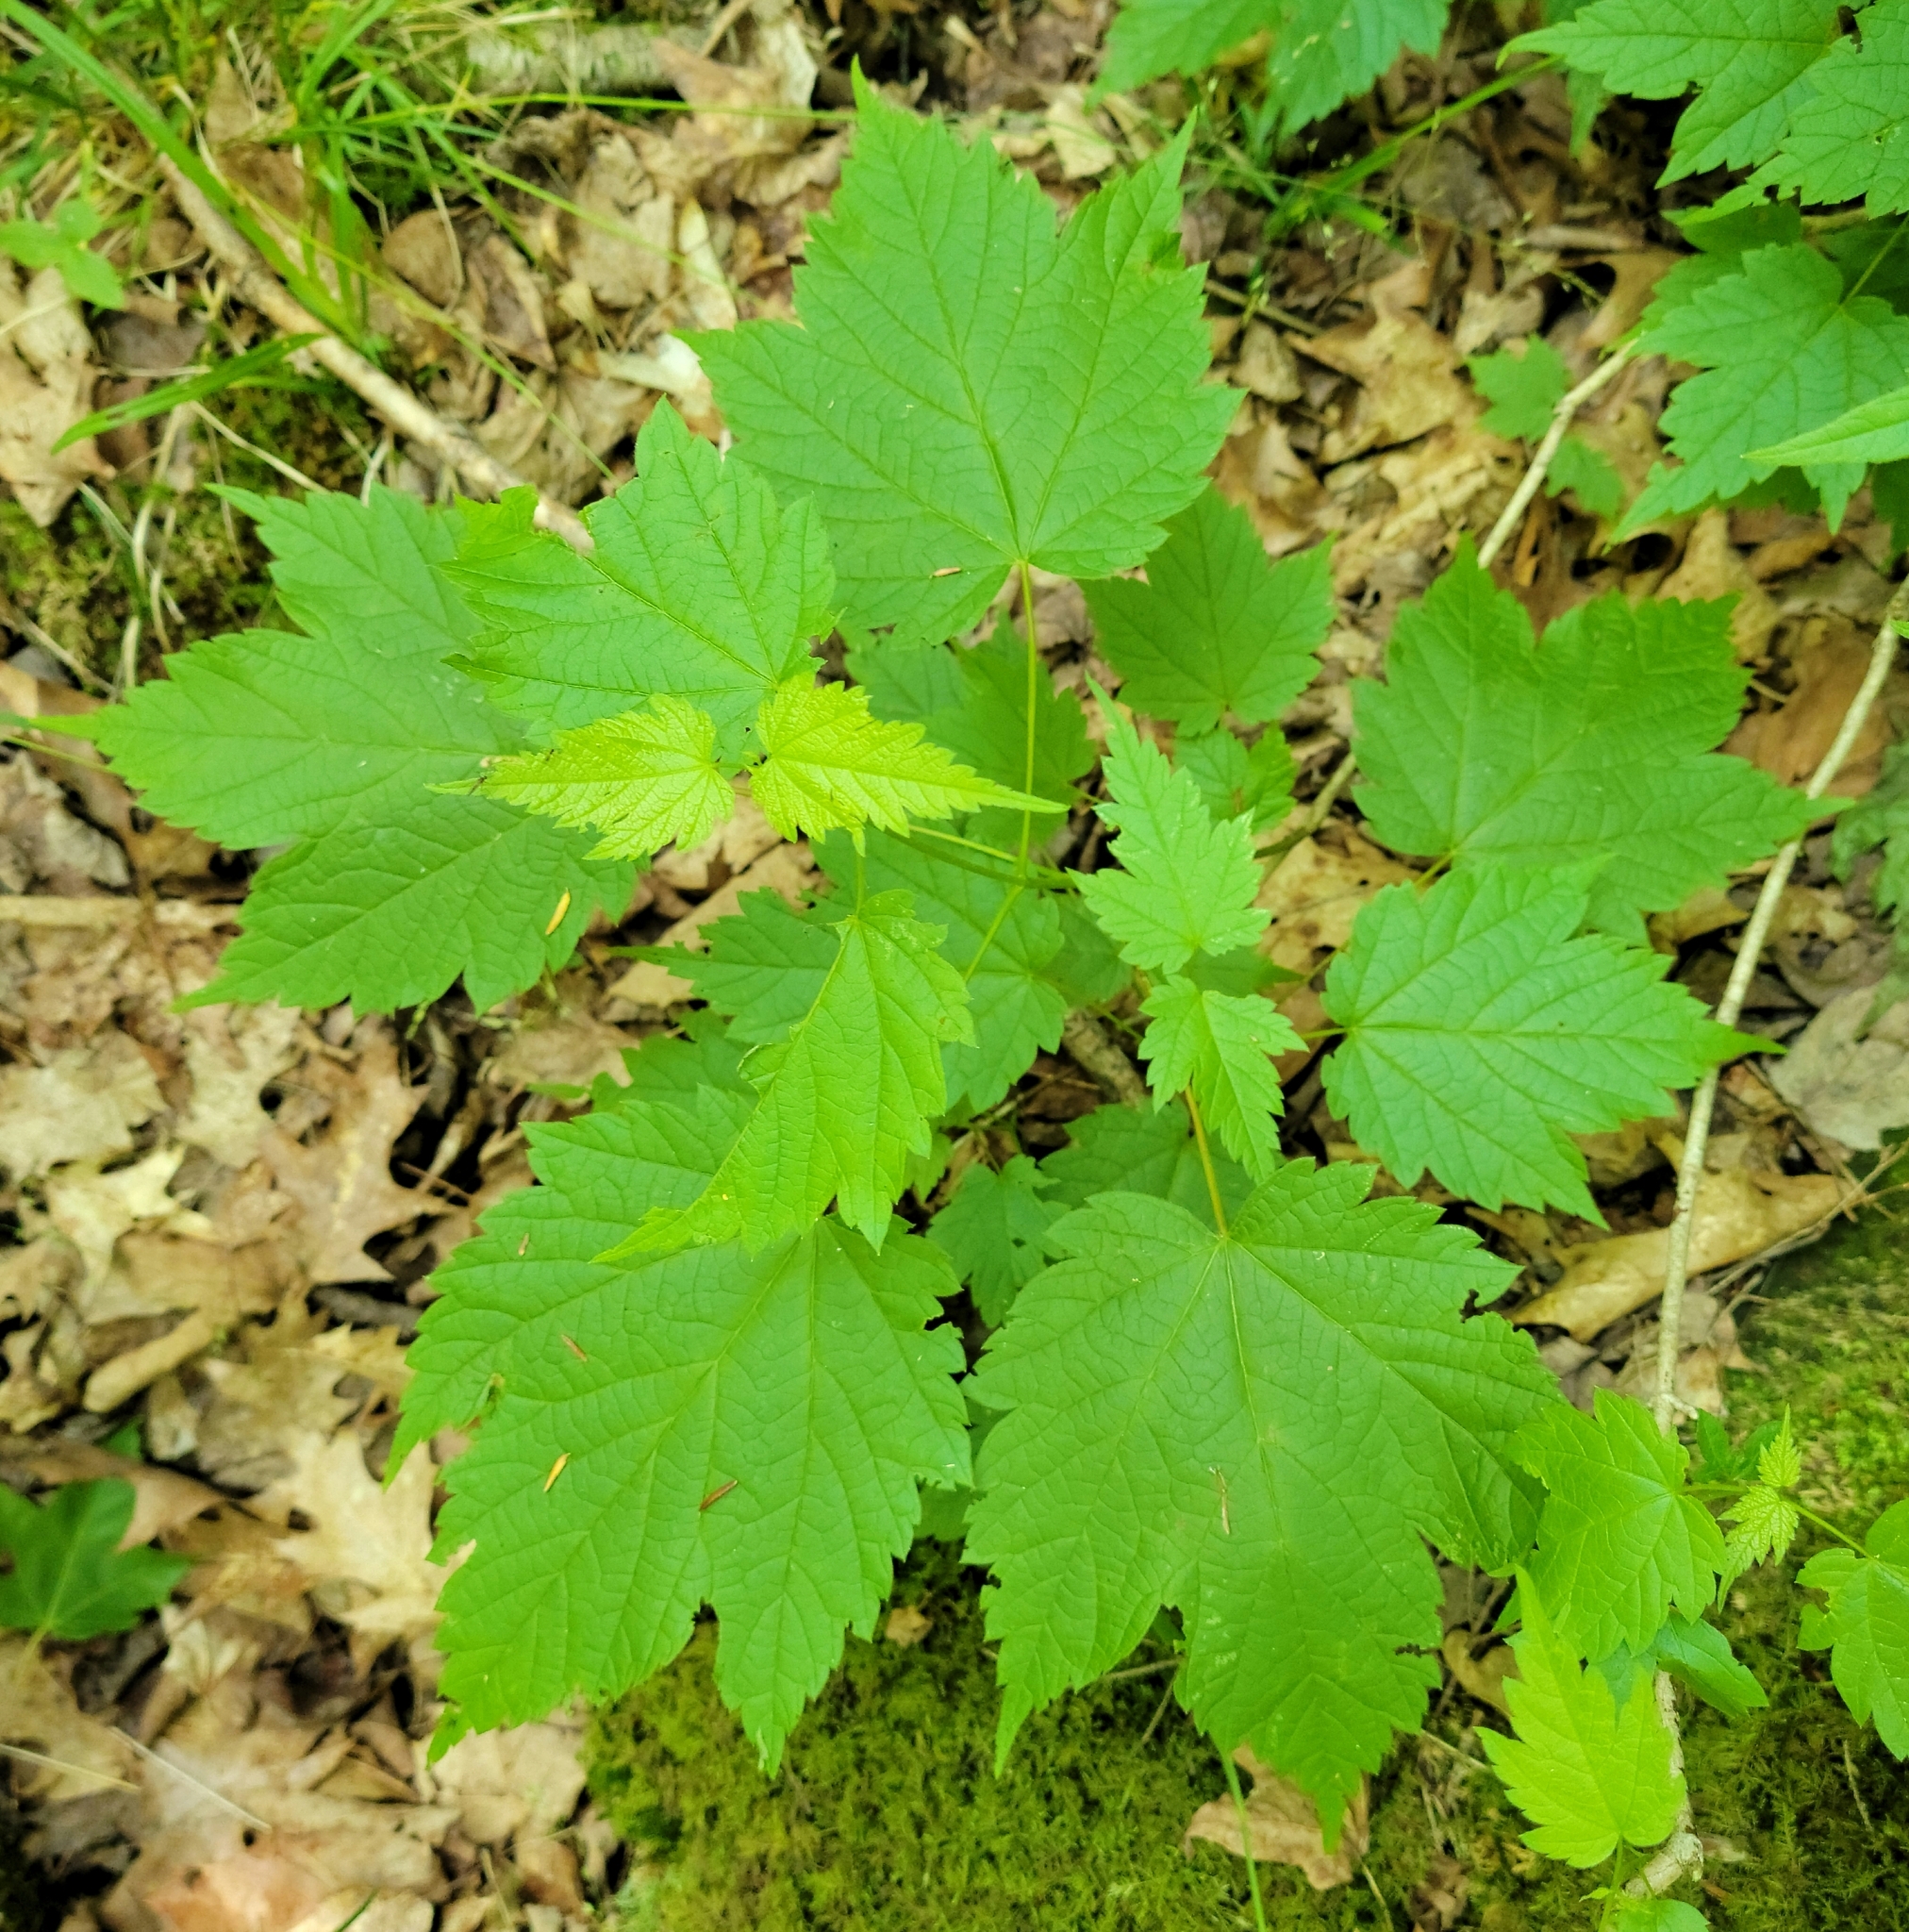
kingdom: Plantae
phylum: Tracheophyta
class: Magnoliopsida
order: Sapindales
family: Sapindaceae
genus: Acer
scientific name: Acer spicatum
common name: Mountain maple
